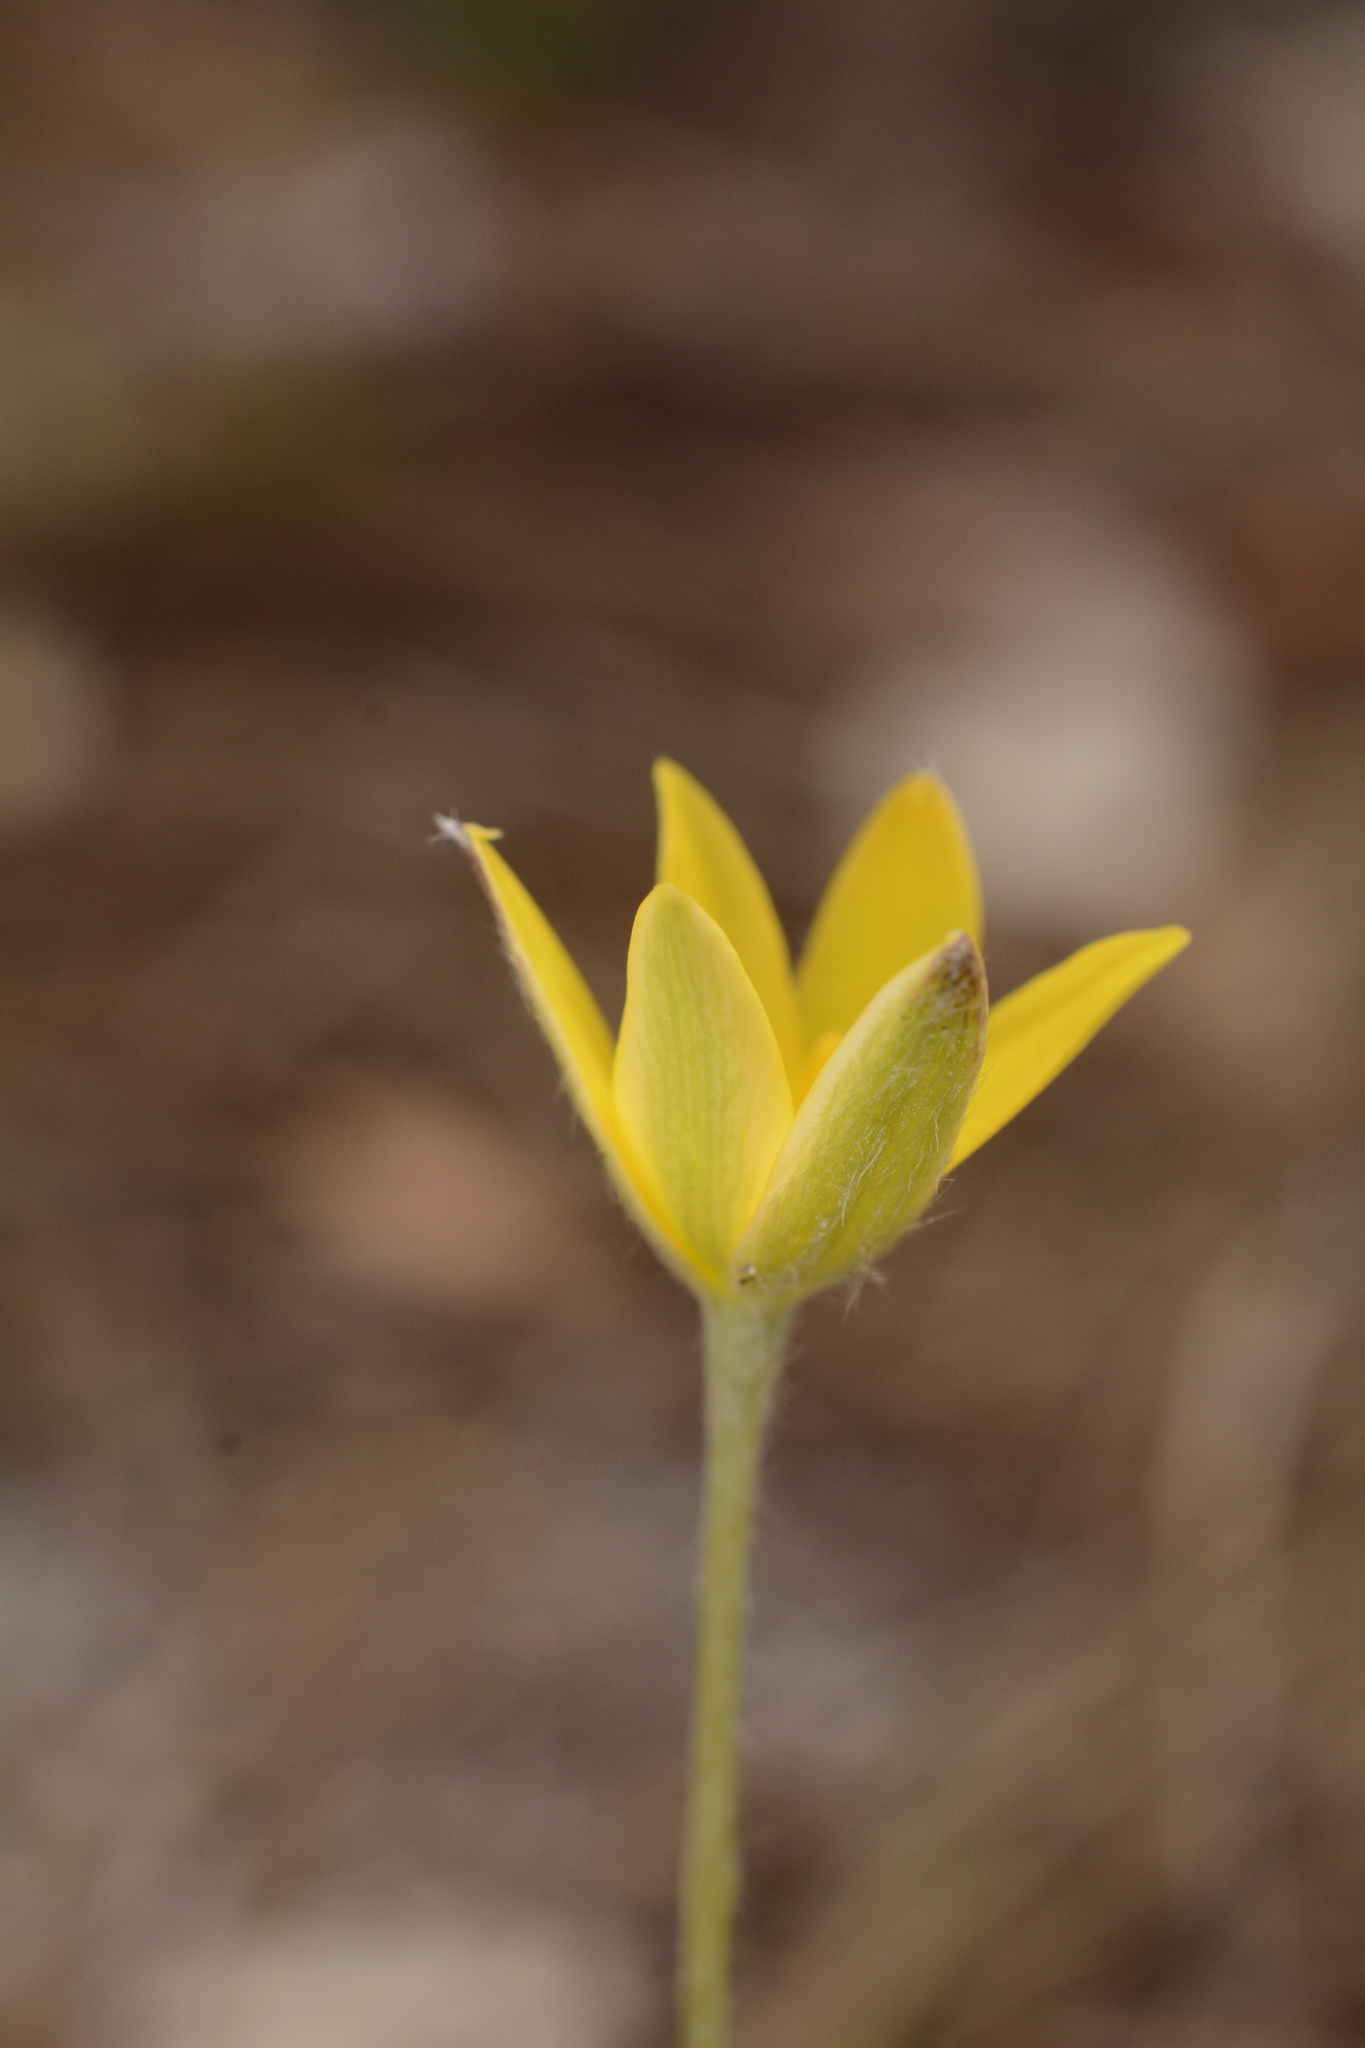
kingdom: Plantae
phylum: Tracheophyta
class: Liliopsida
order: Asparagales
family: Hypoxidaceae
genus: Hypoxis
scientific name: Hypoxis juncea
